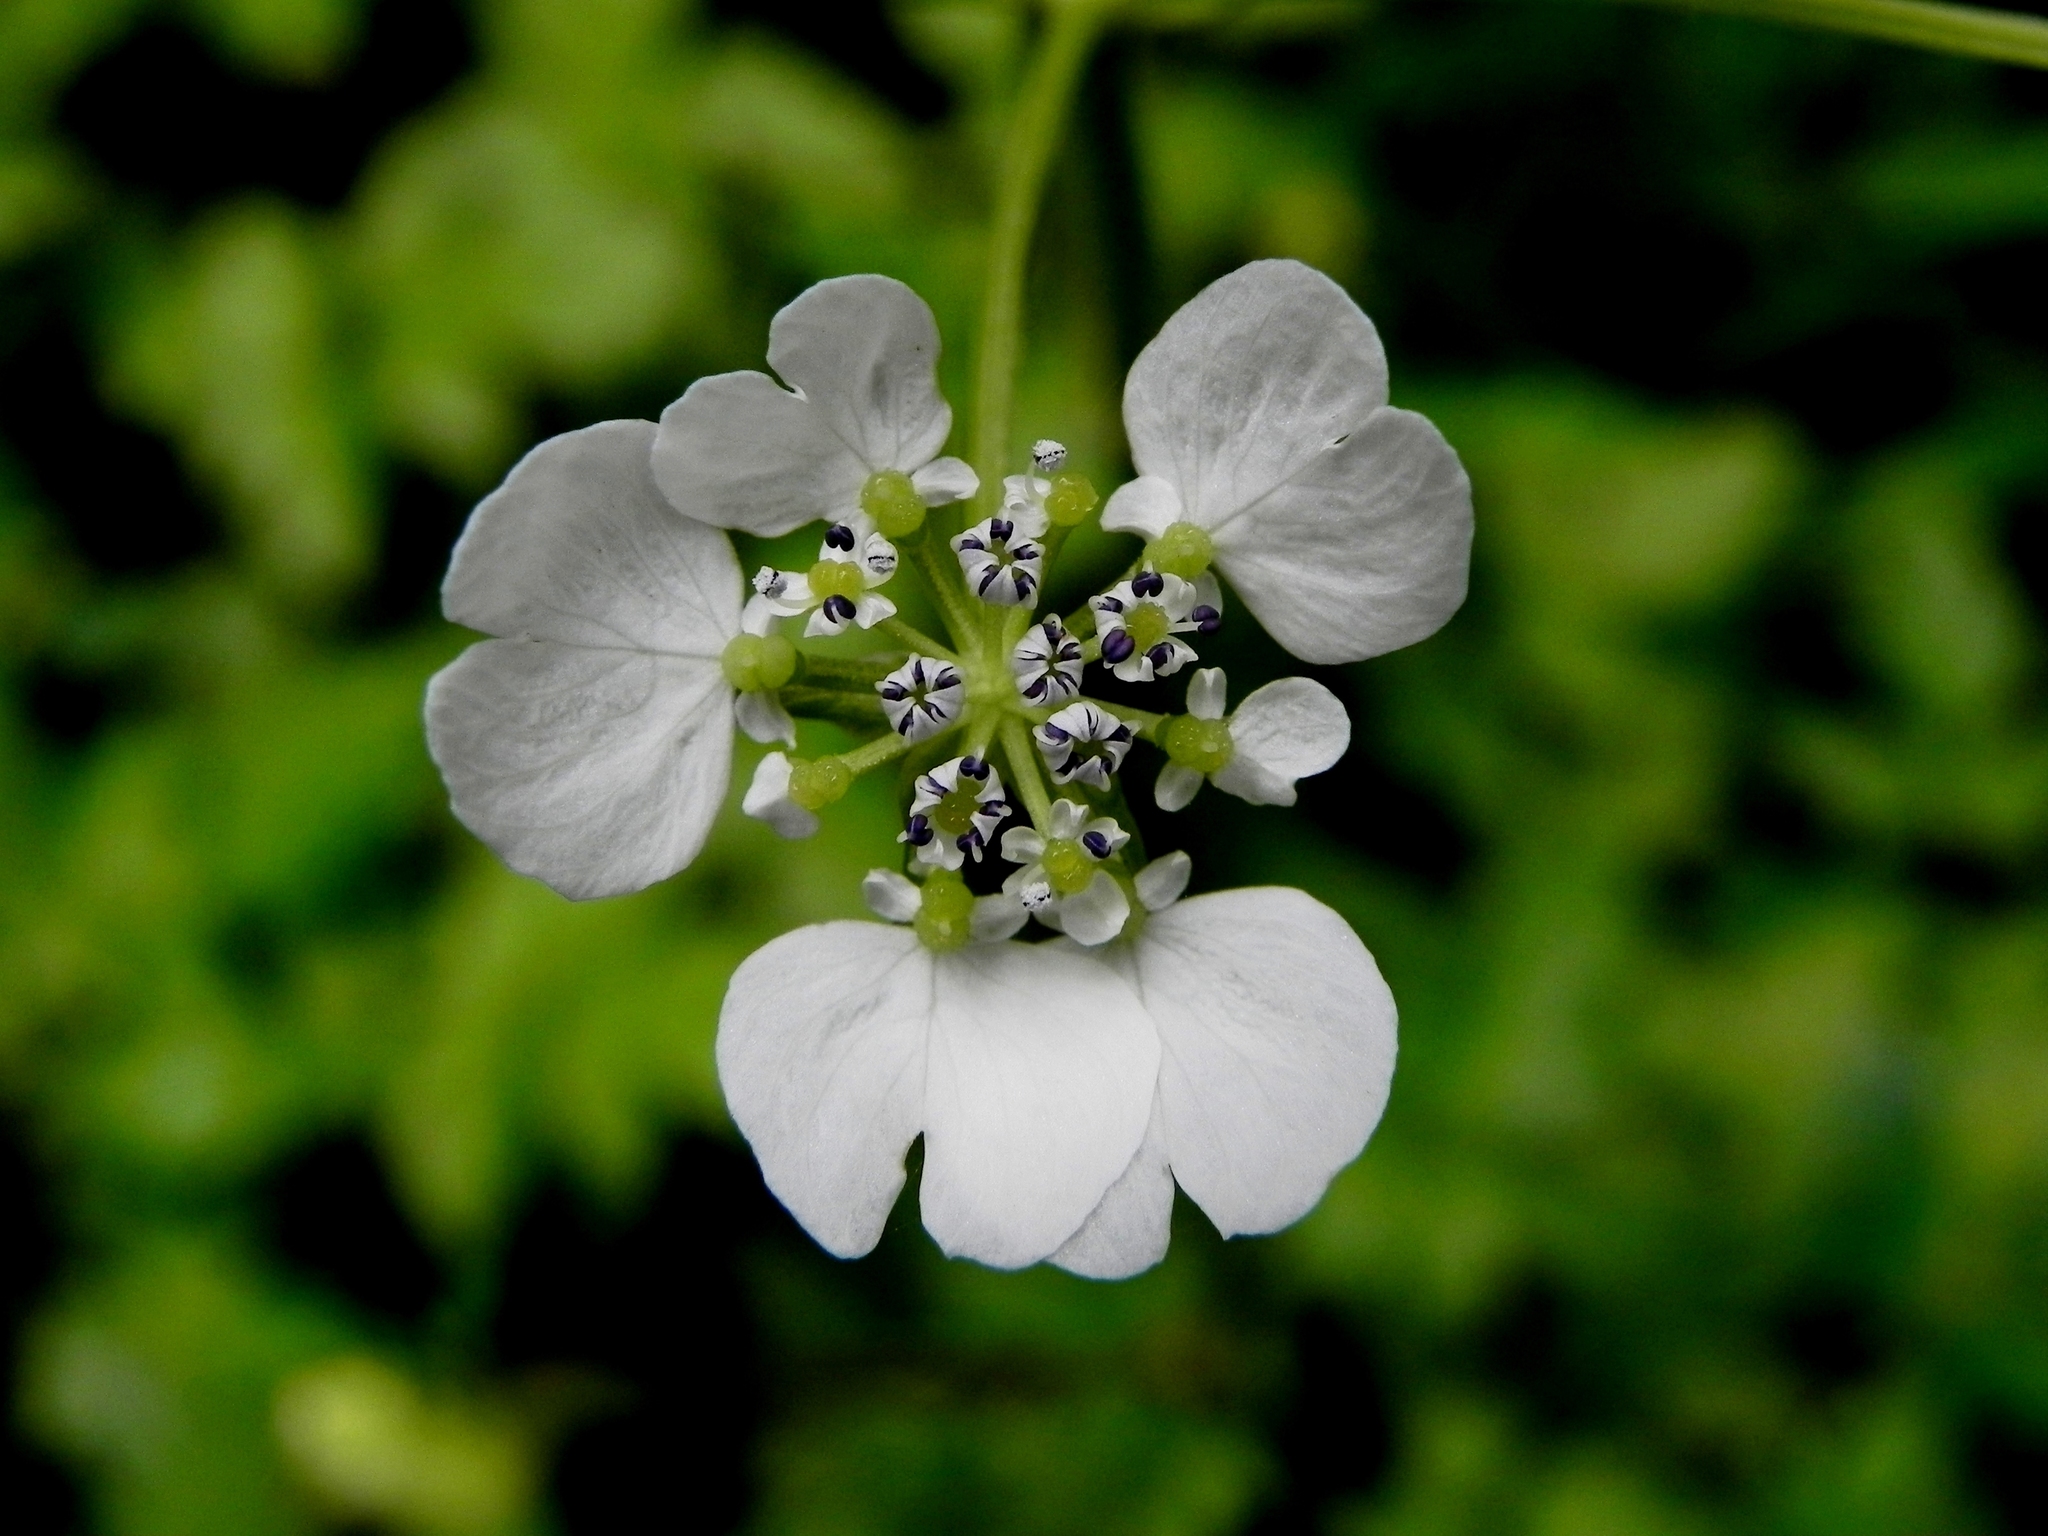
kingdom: Plantae
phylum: Tracheophyta
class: Magnoliopsida
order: Apiales
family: Apiaceae
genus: Pinda
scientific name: Pinda concanensis
